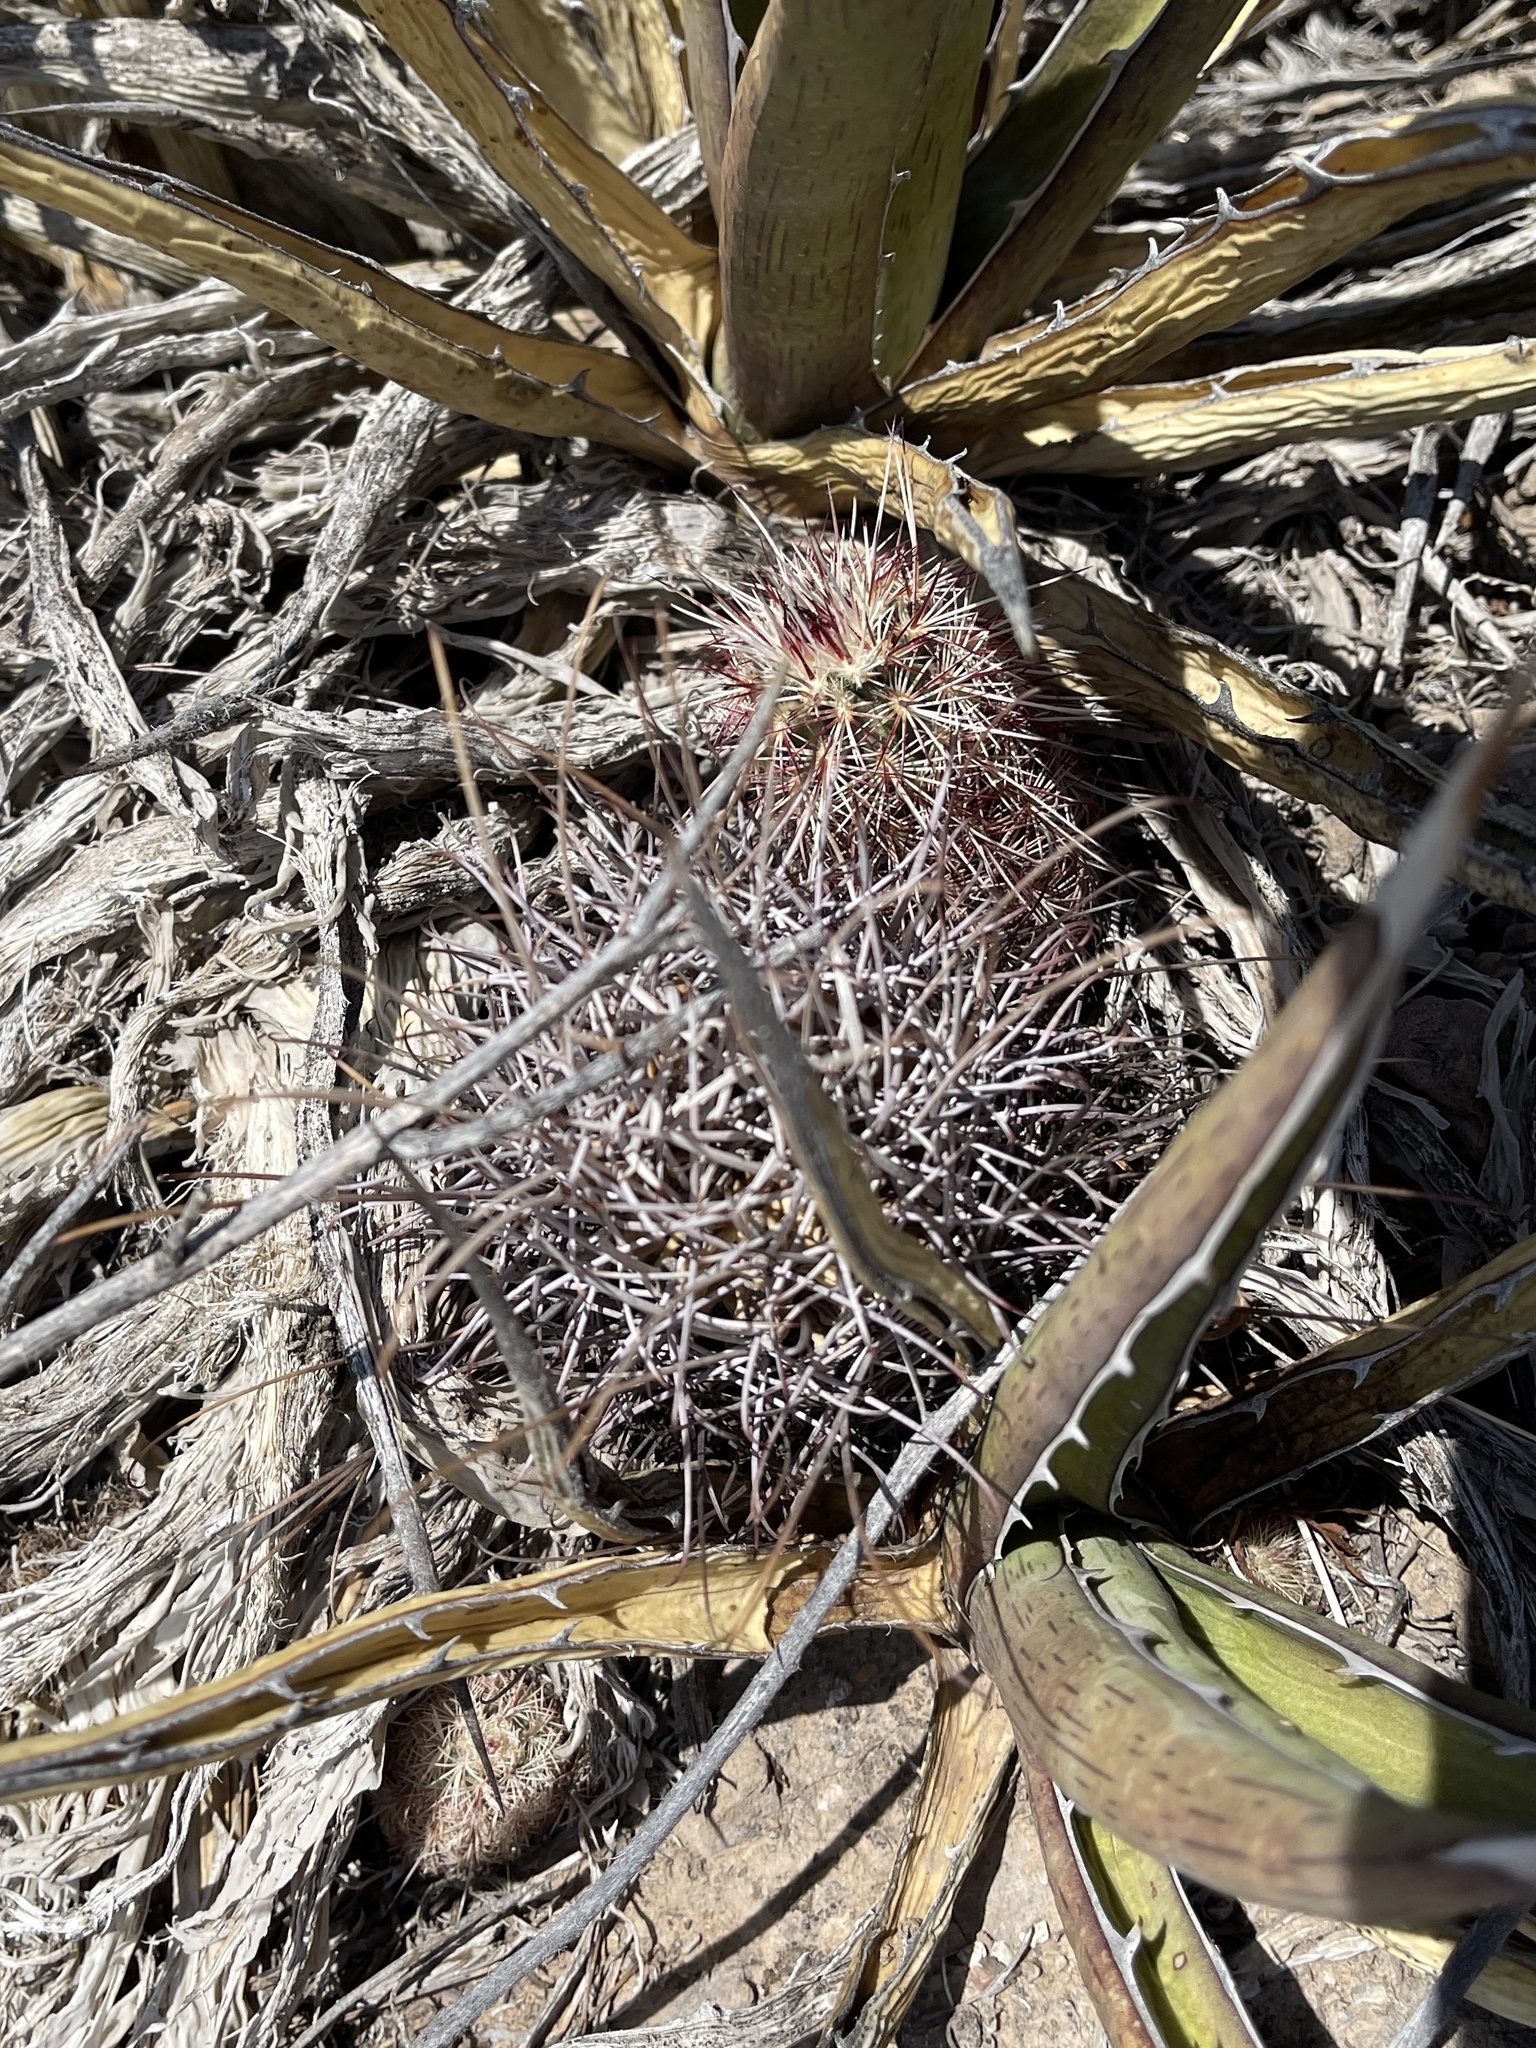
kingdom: Plantae
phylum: Tracheophyta
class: Magnoliopsida
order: Caryophyllales
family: Cactaceae
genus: Ferocactus
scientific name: Ferocactus uncinatus
